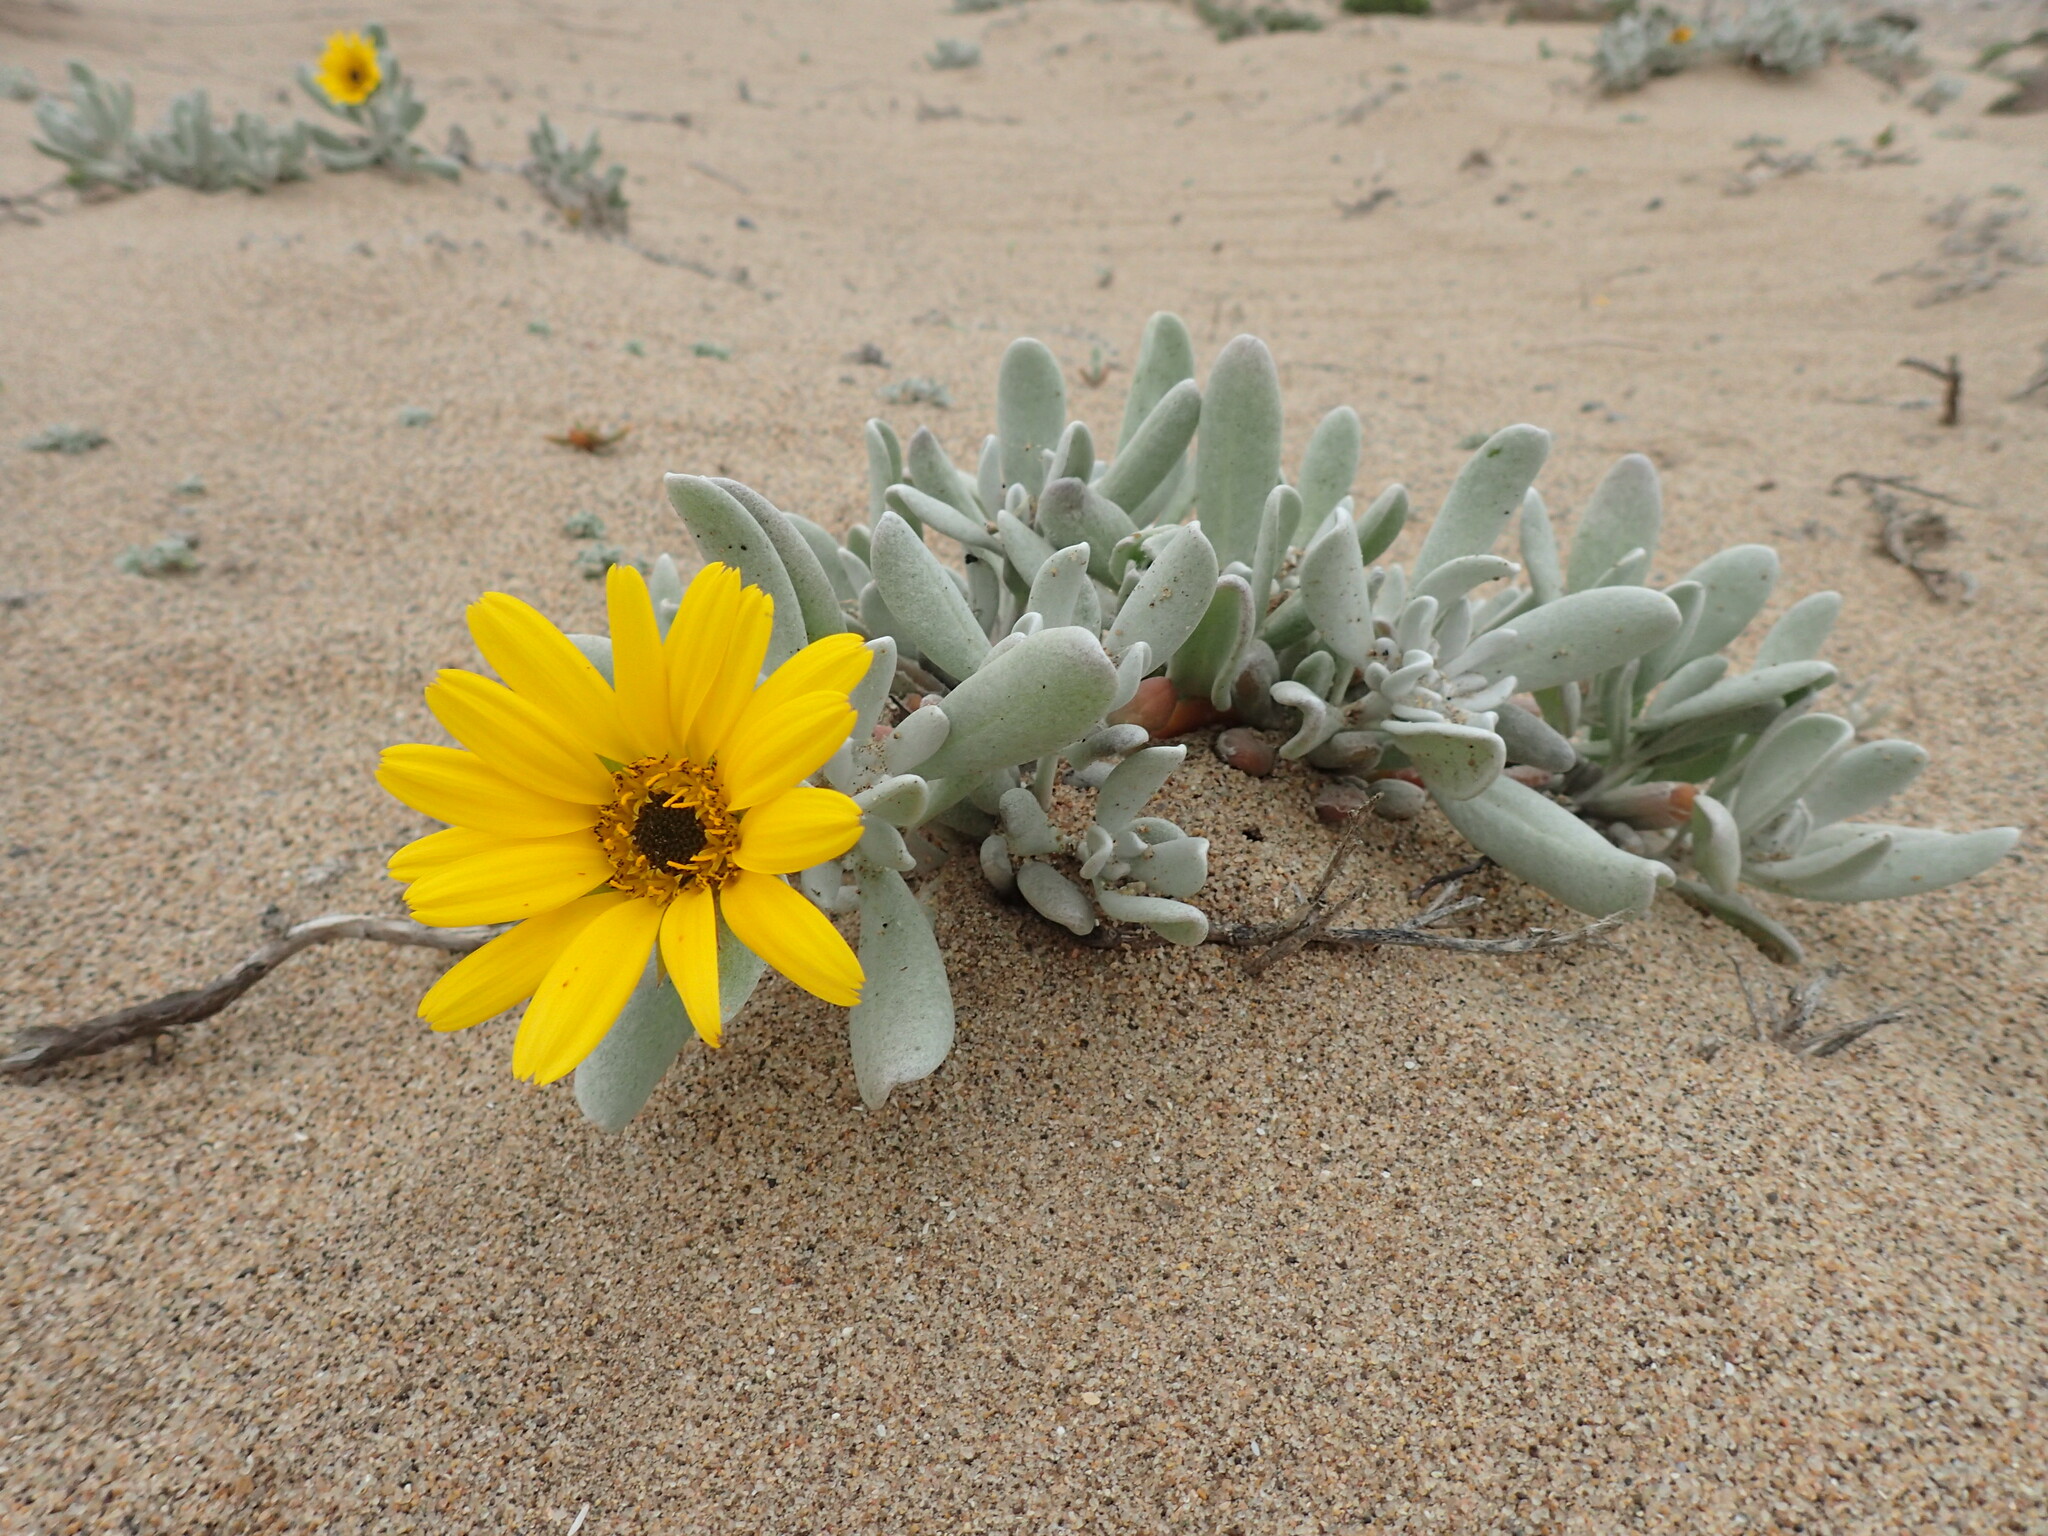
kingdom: Plantae
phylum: Tracheophyta
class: Magnoliopsida
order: Asterales
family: Asteraceae
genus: Didelta
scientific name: Didelta carnosa
